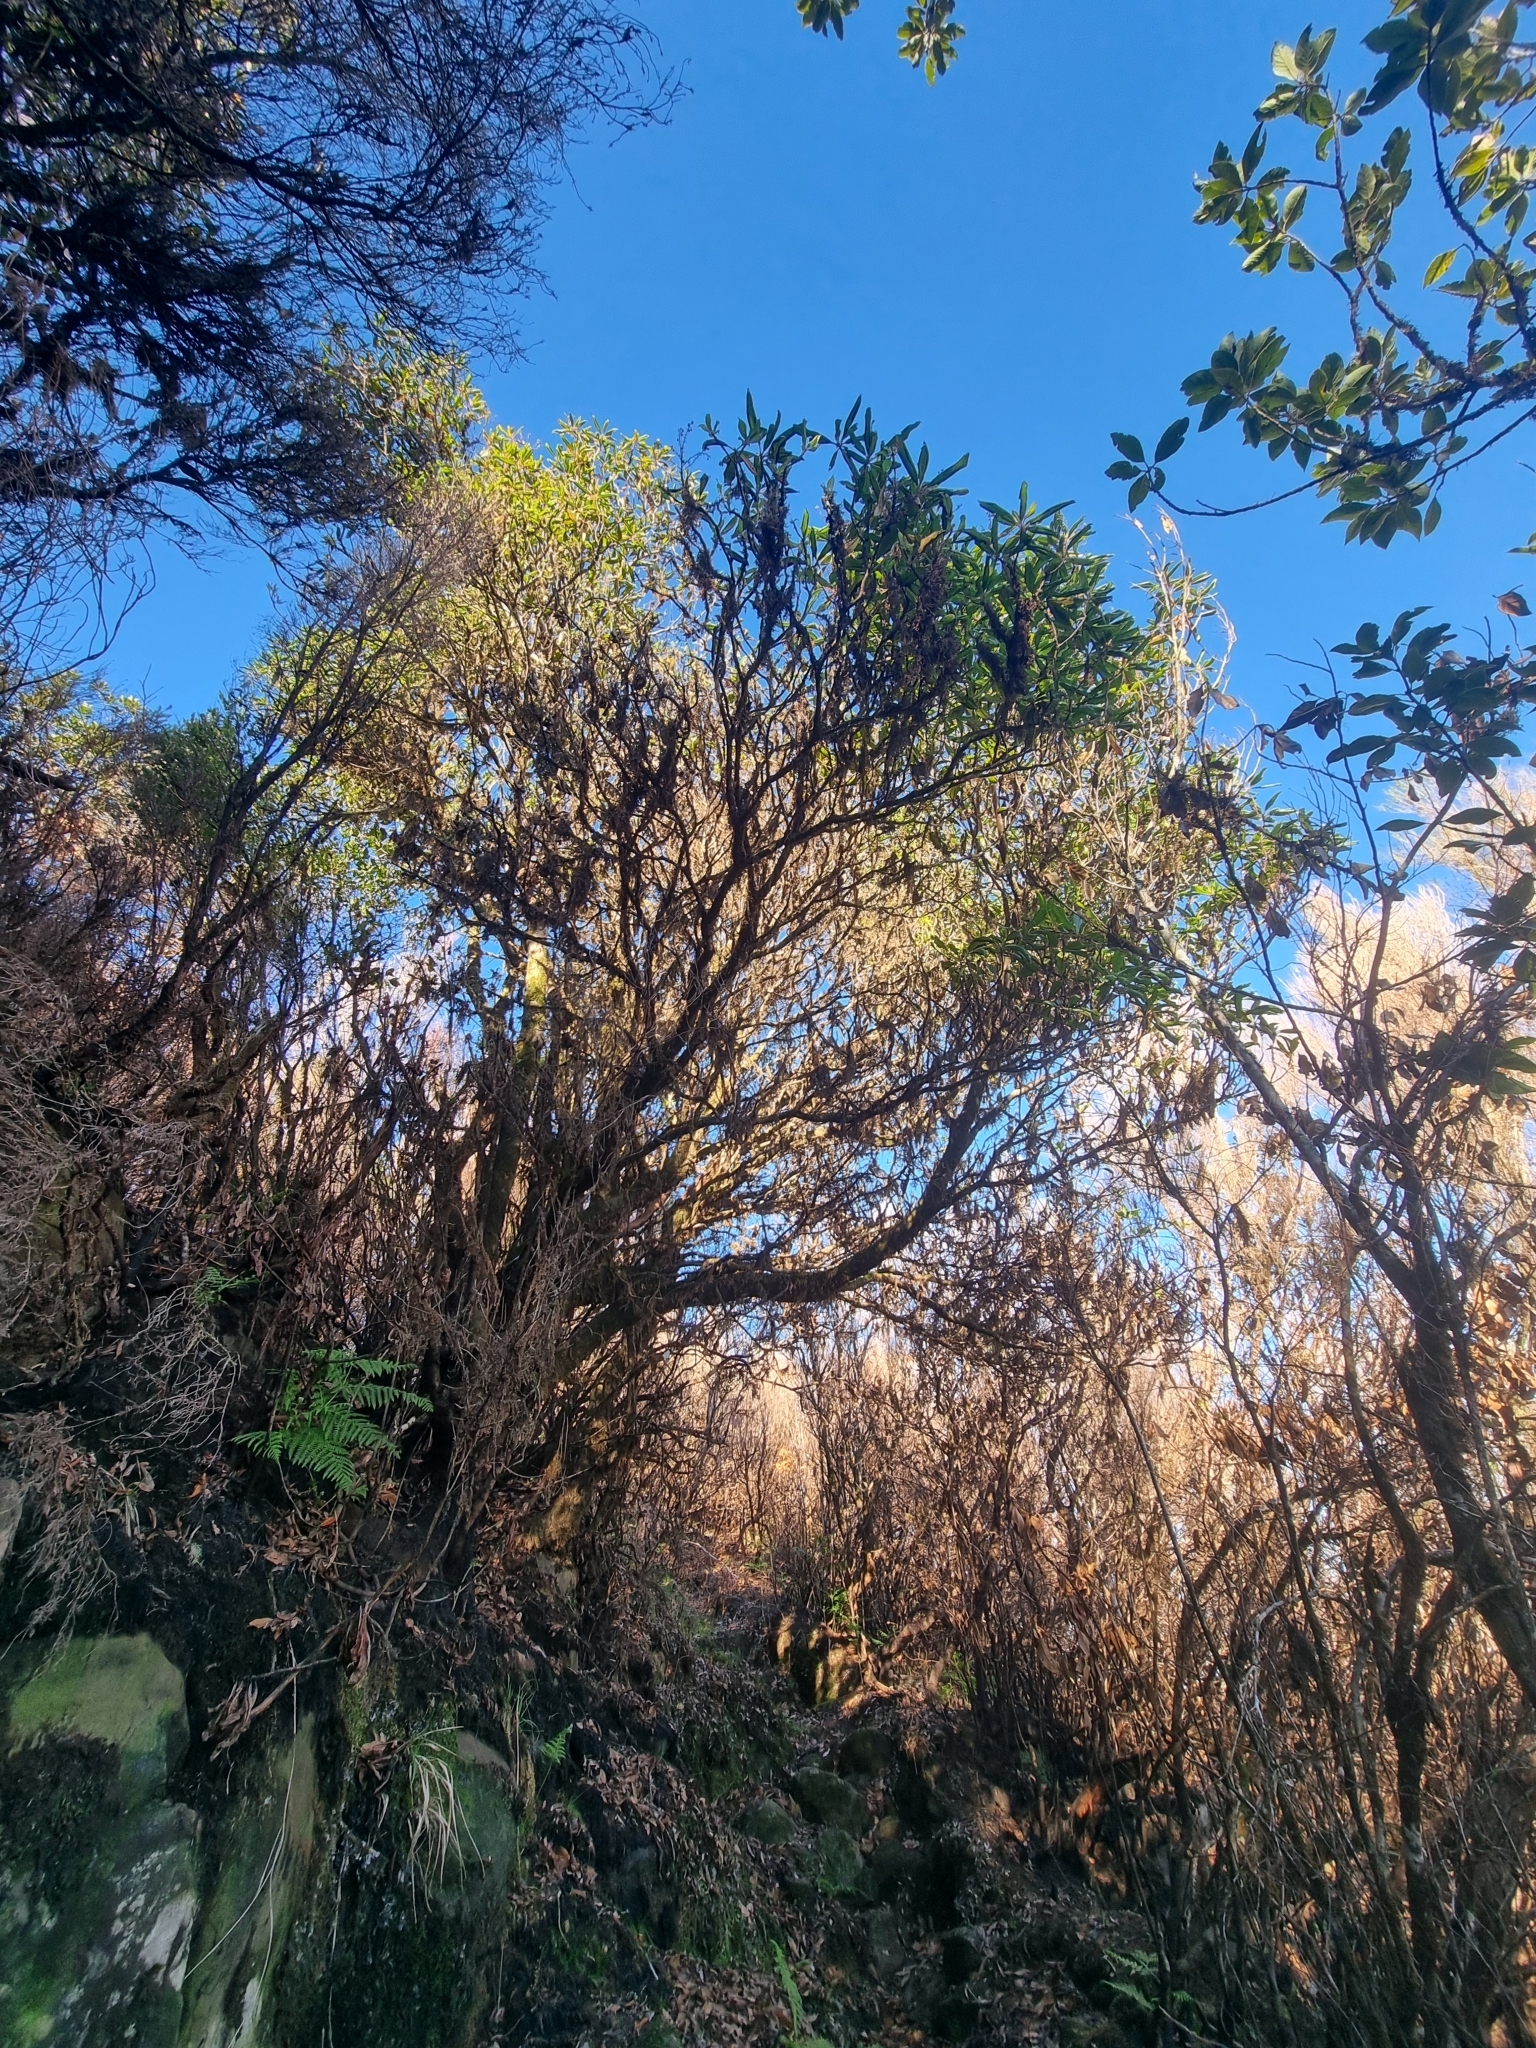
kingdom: Plantae
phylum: Tracheophyta
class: Magnoliopsida
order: Ericales
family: Clethraceae
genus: Clethra
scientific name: Clethra arborea
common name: Lily-of-the-valley-tree
